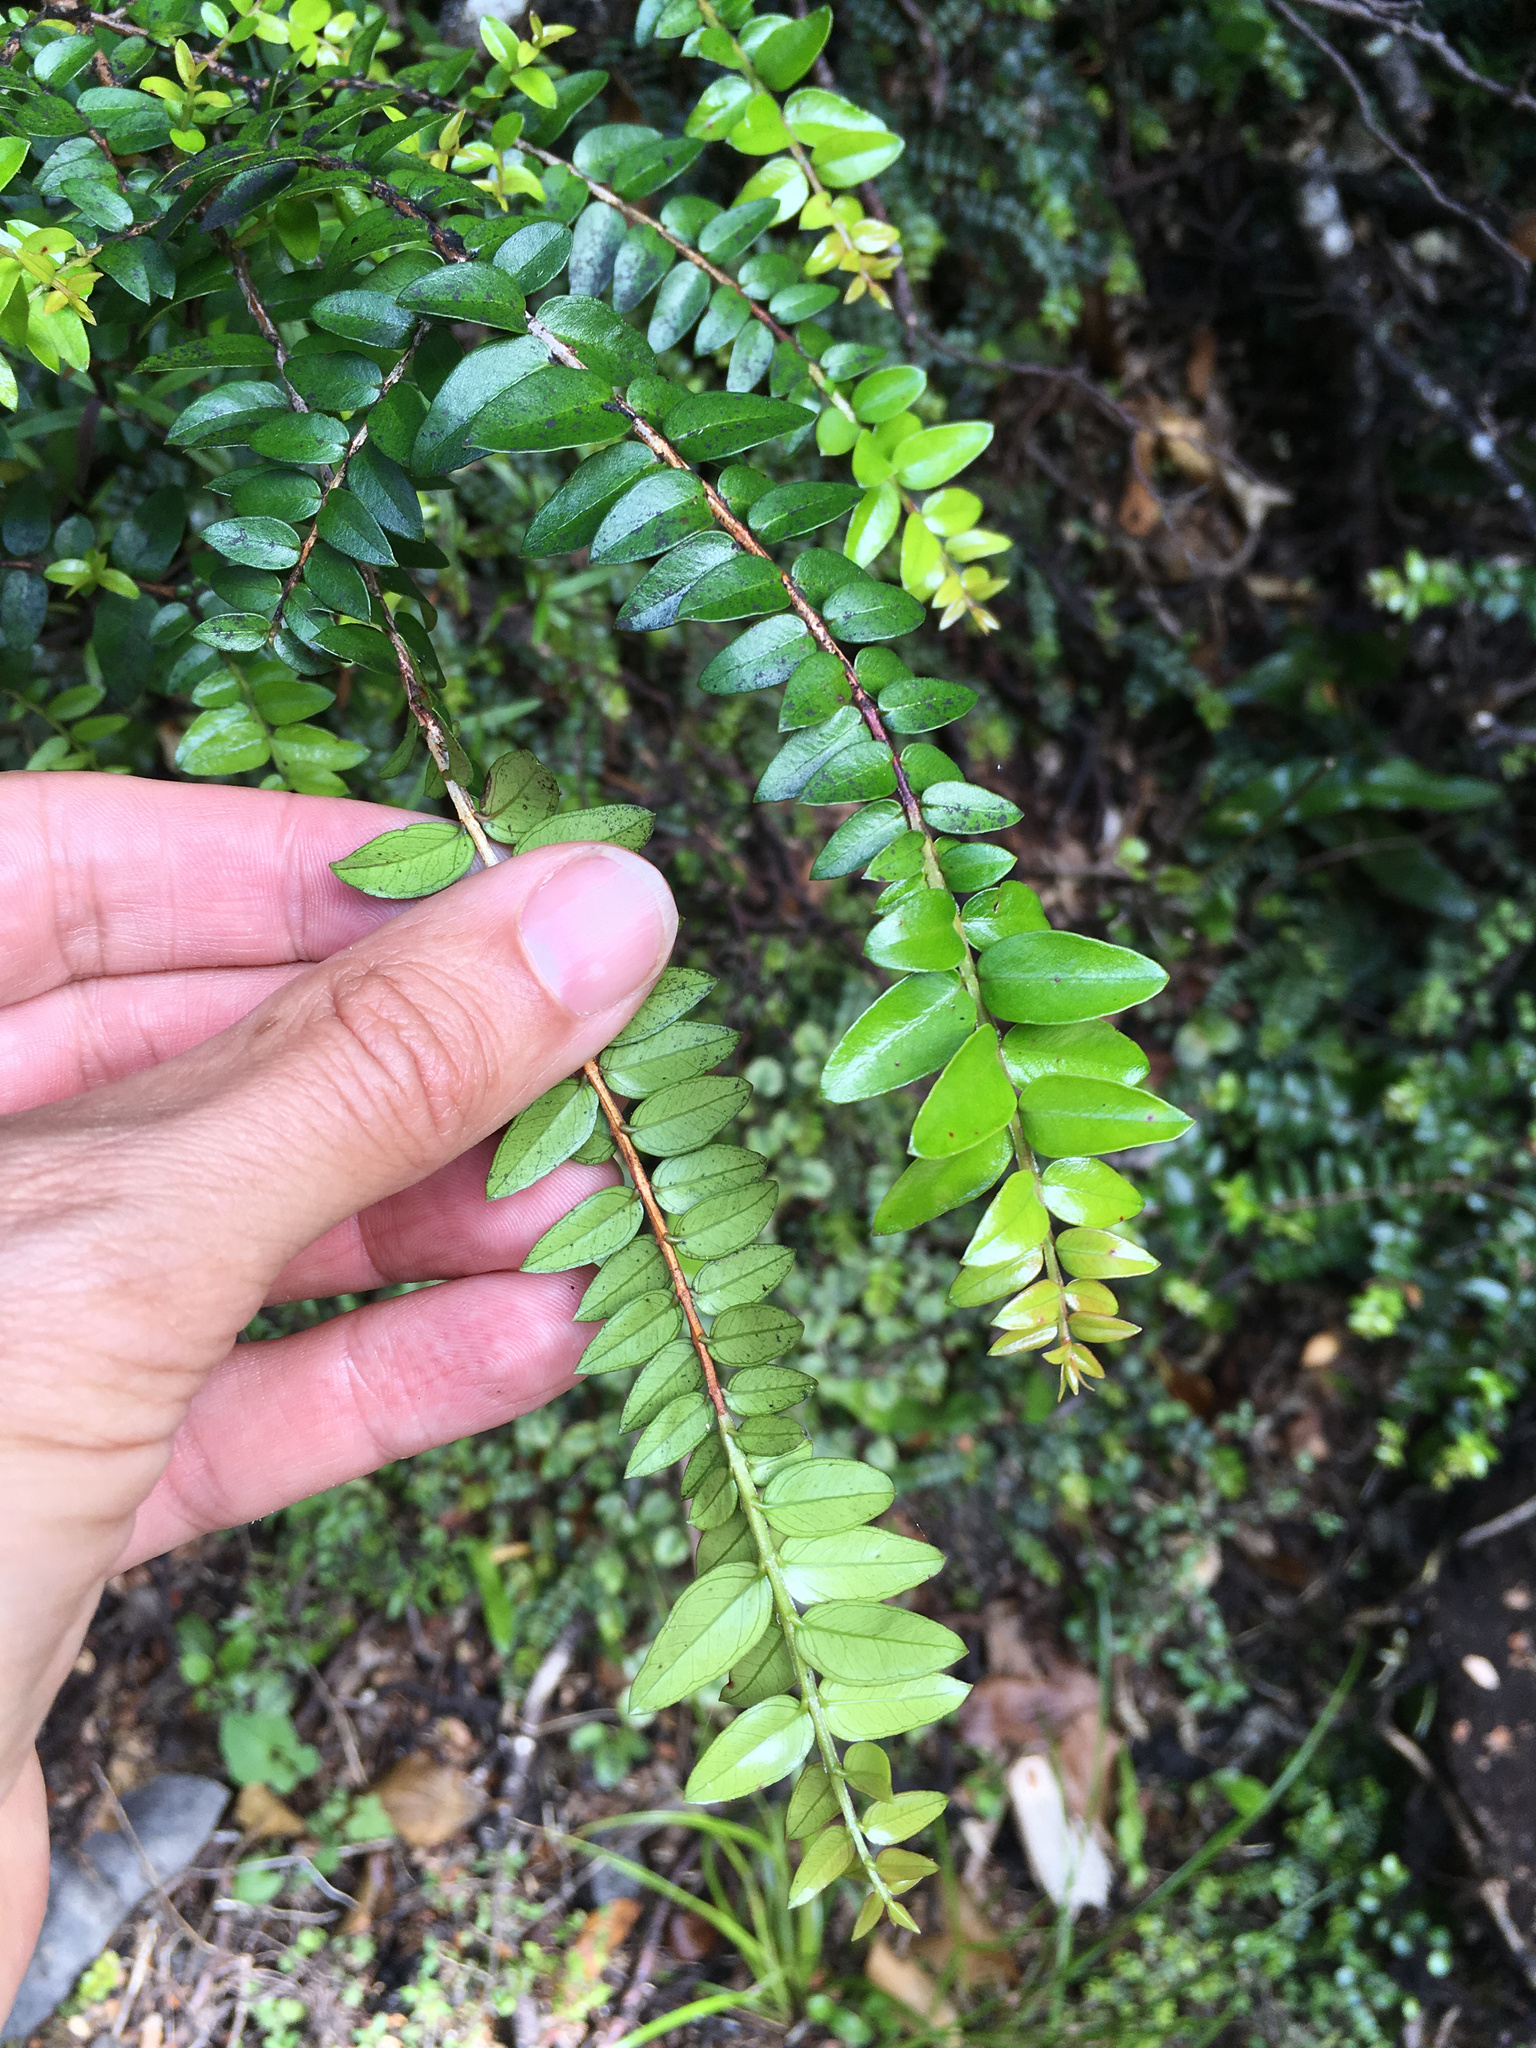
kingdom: Plantae
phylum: Tracheophyta
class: Magnoliopsida
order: Myrtales
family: Myrtaceae
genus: Metrosideros
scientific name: Metrosideros diffusa
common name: Small ratavine
